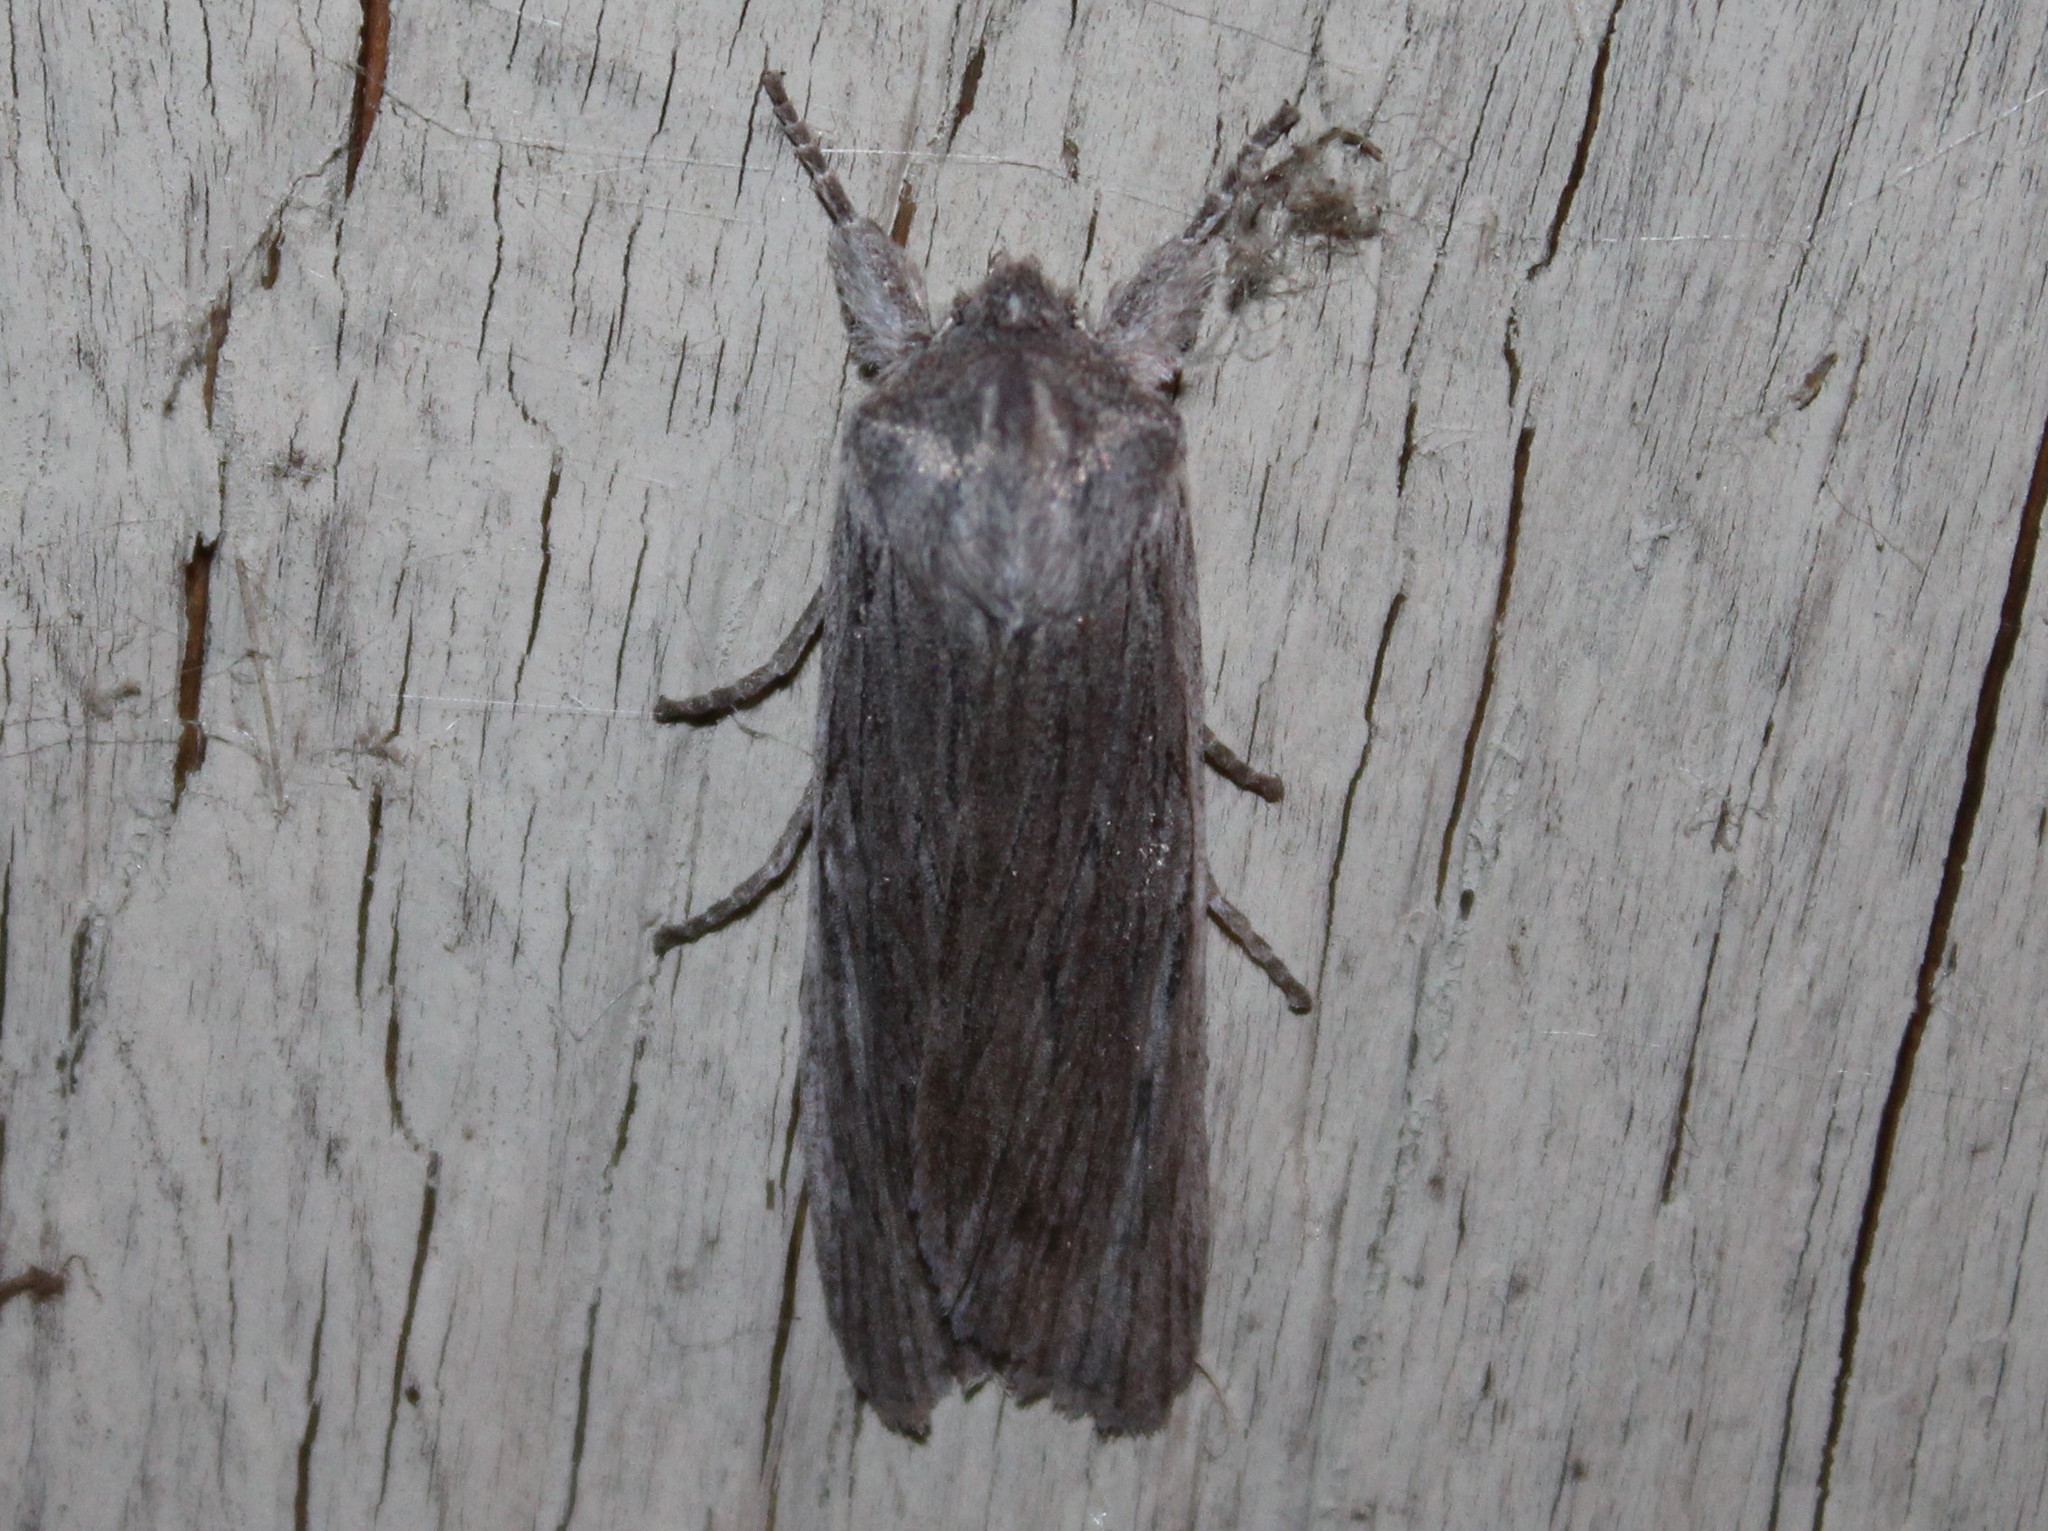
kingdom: Animalia
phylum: Arthropoda
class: Insecta
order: Lepidoptera
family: Noctuidae
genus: Lithophane
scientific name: Lithophane fagina
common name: Hoary pinion moth
